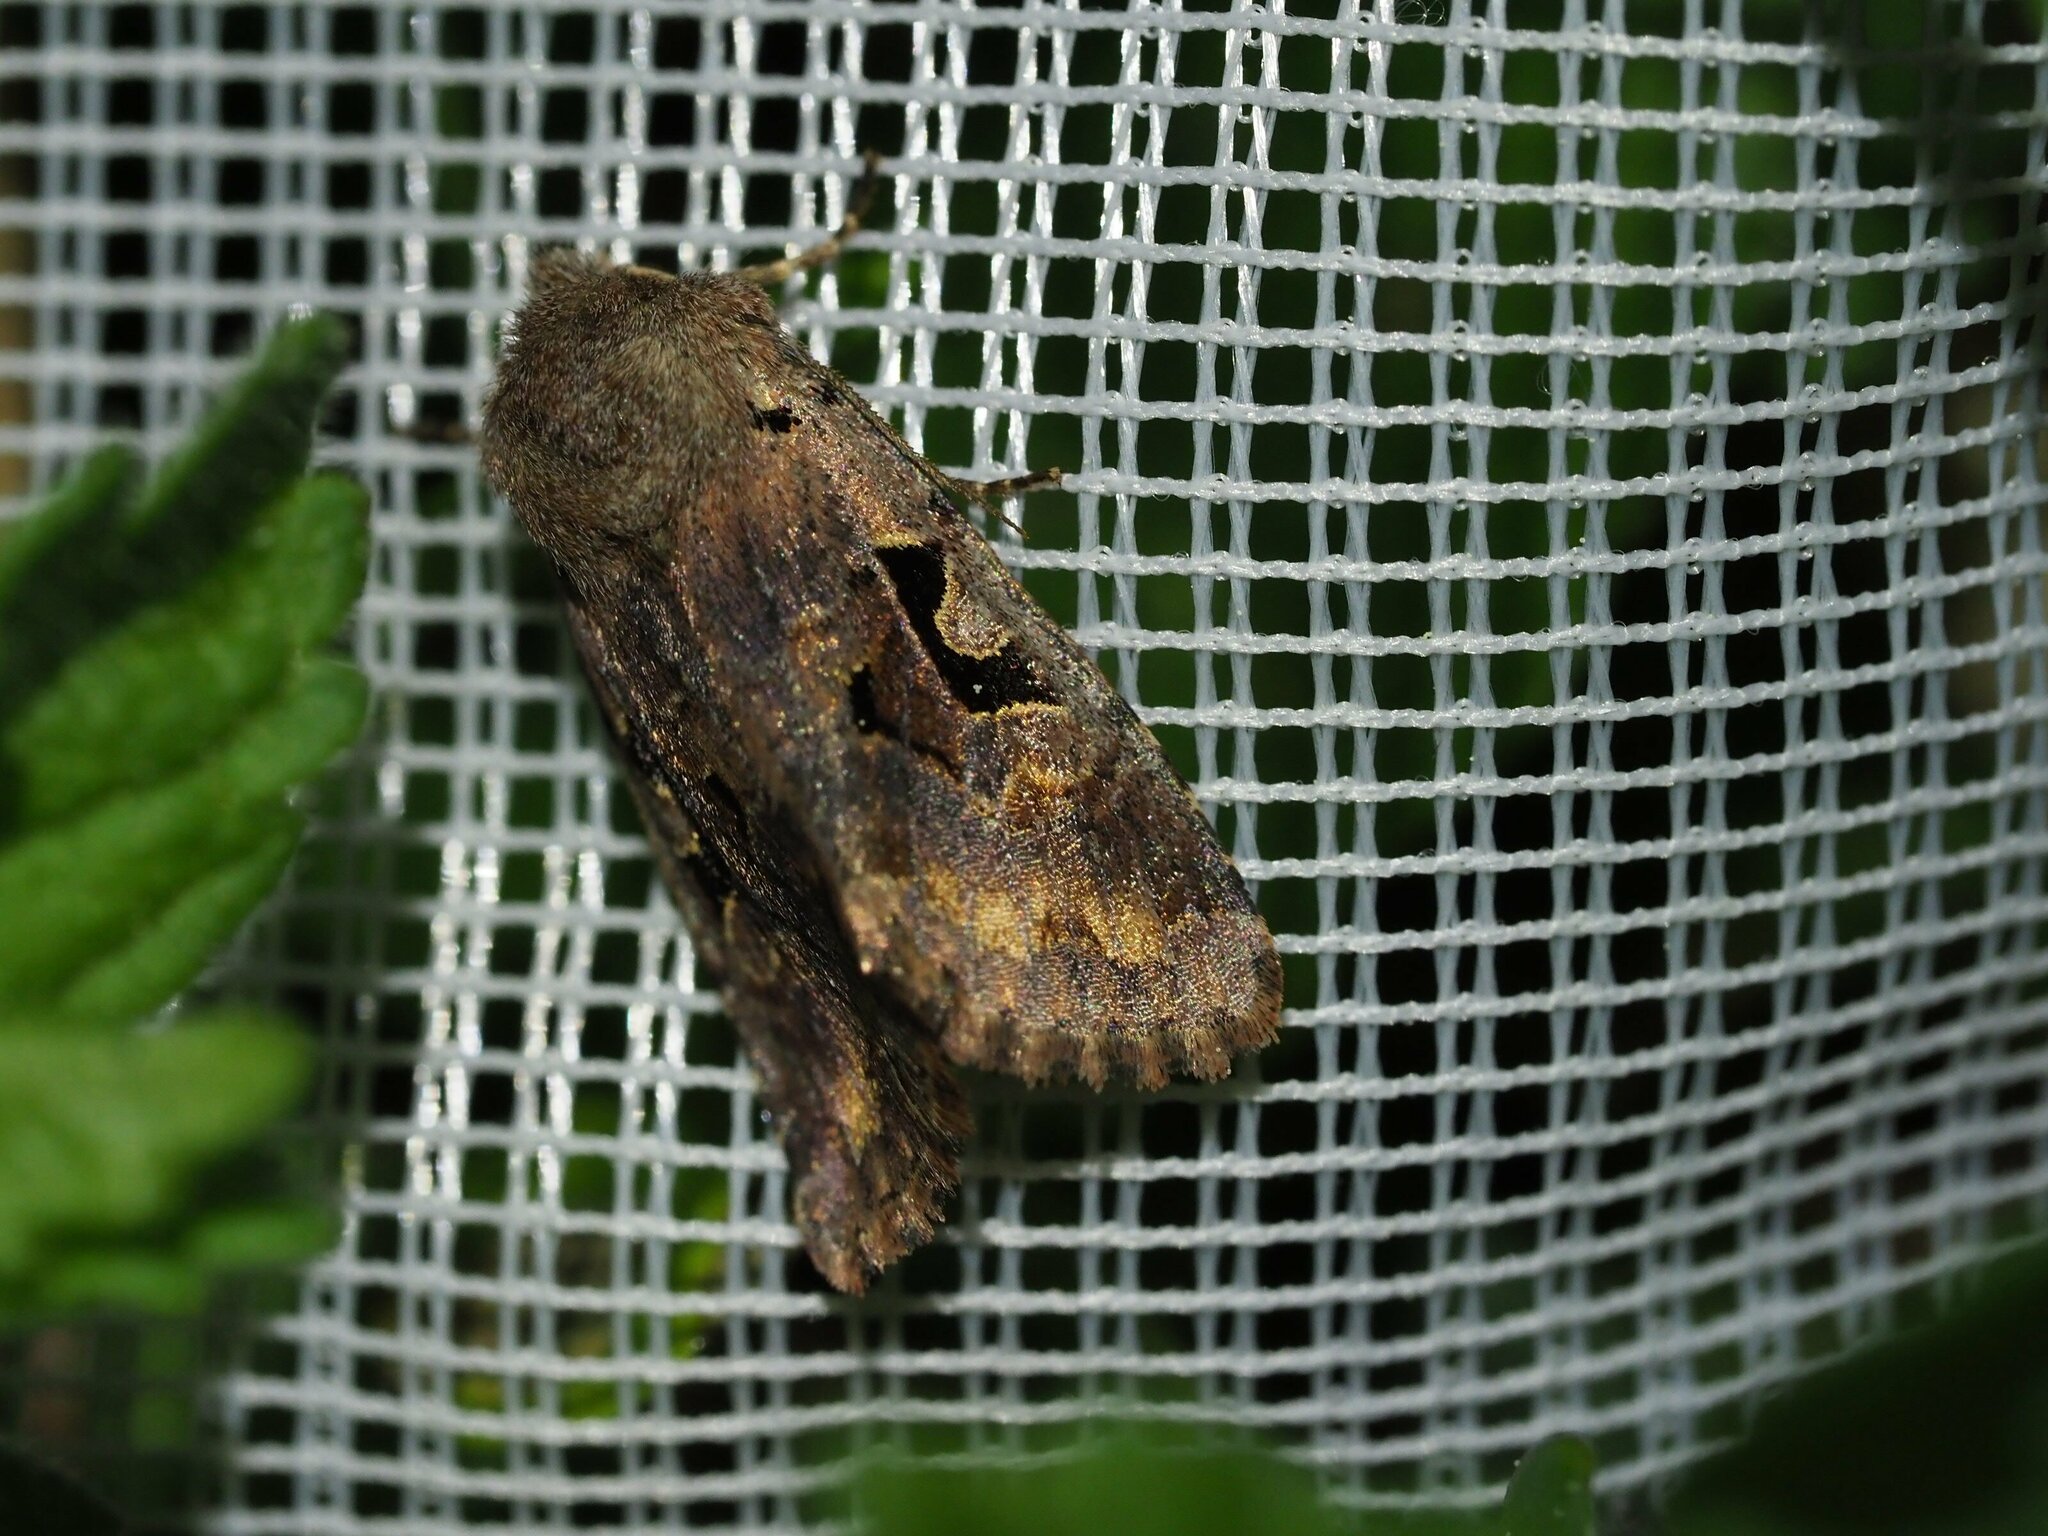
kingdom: Animalia
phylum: Arthropoda
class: Insecta
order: Lepidoptera
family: Noctuidae
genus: Orthosia
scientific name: Orthosia gothica
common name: Hebrew character
